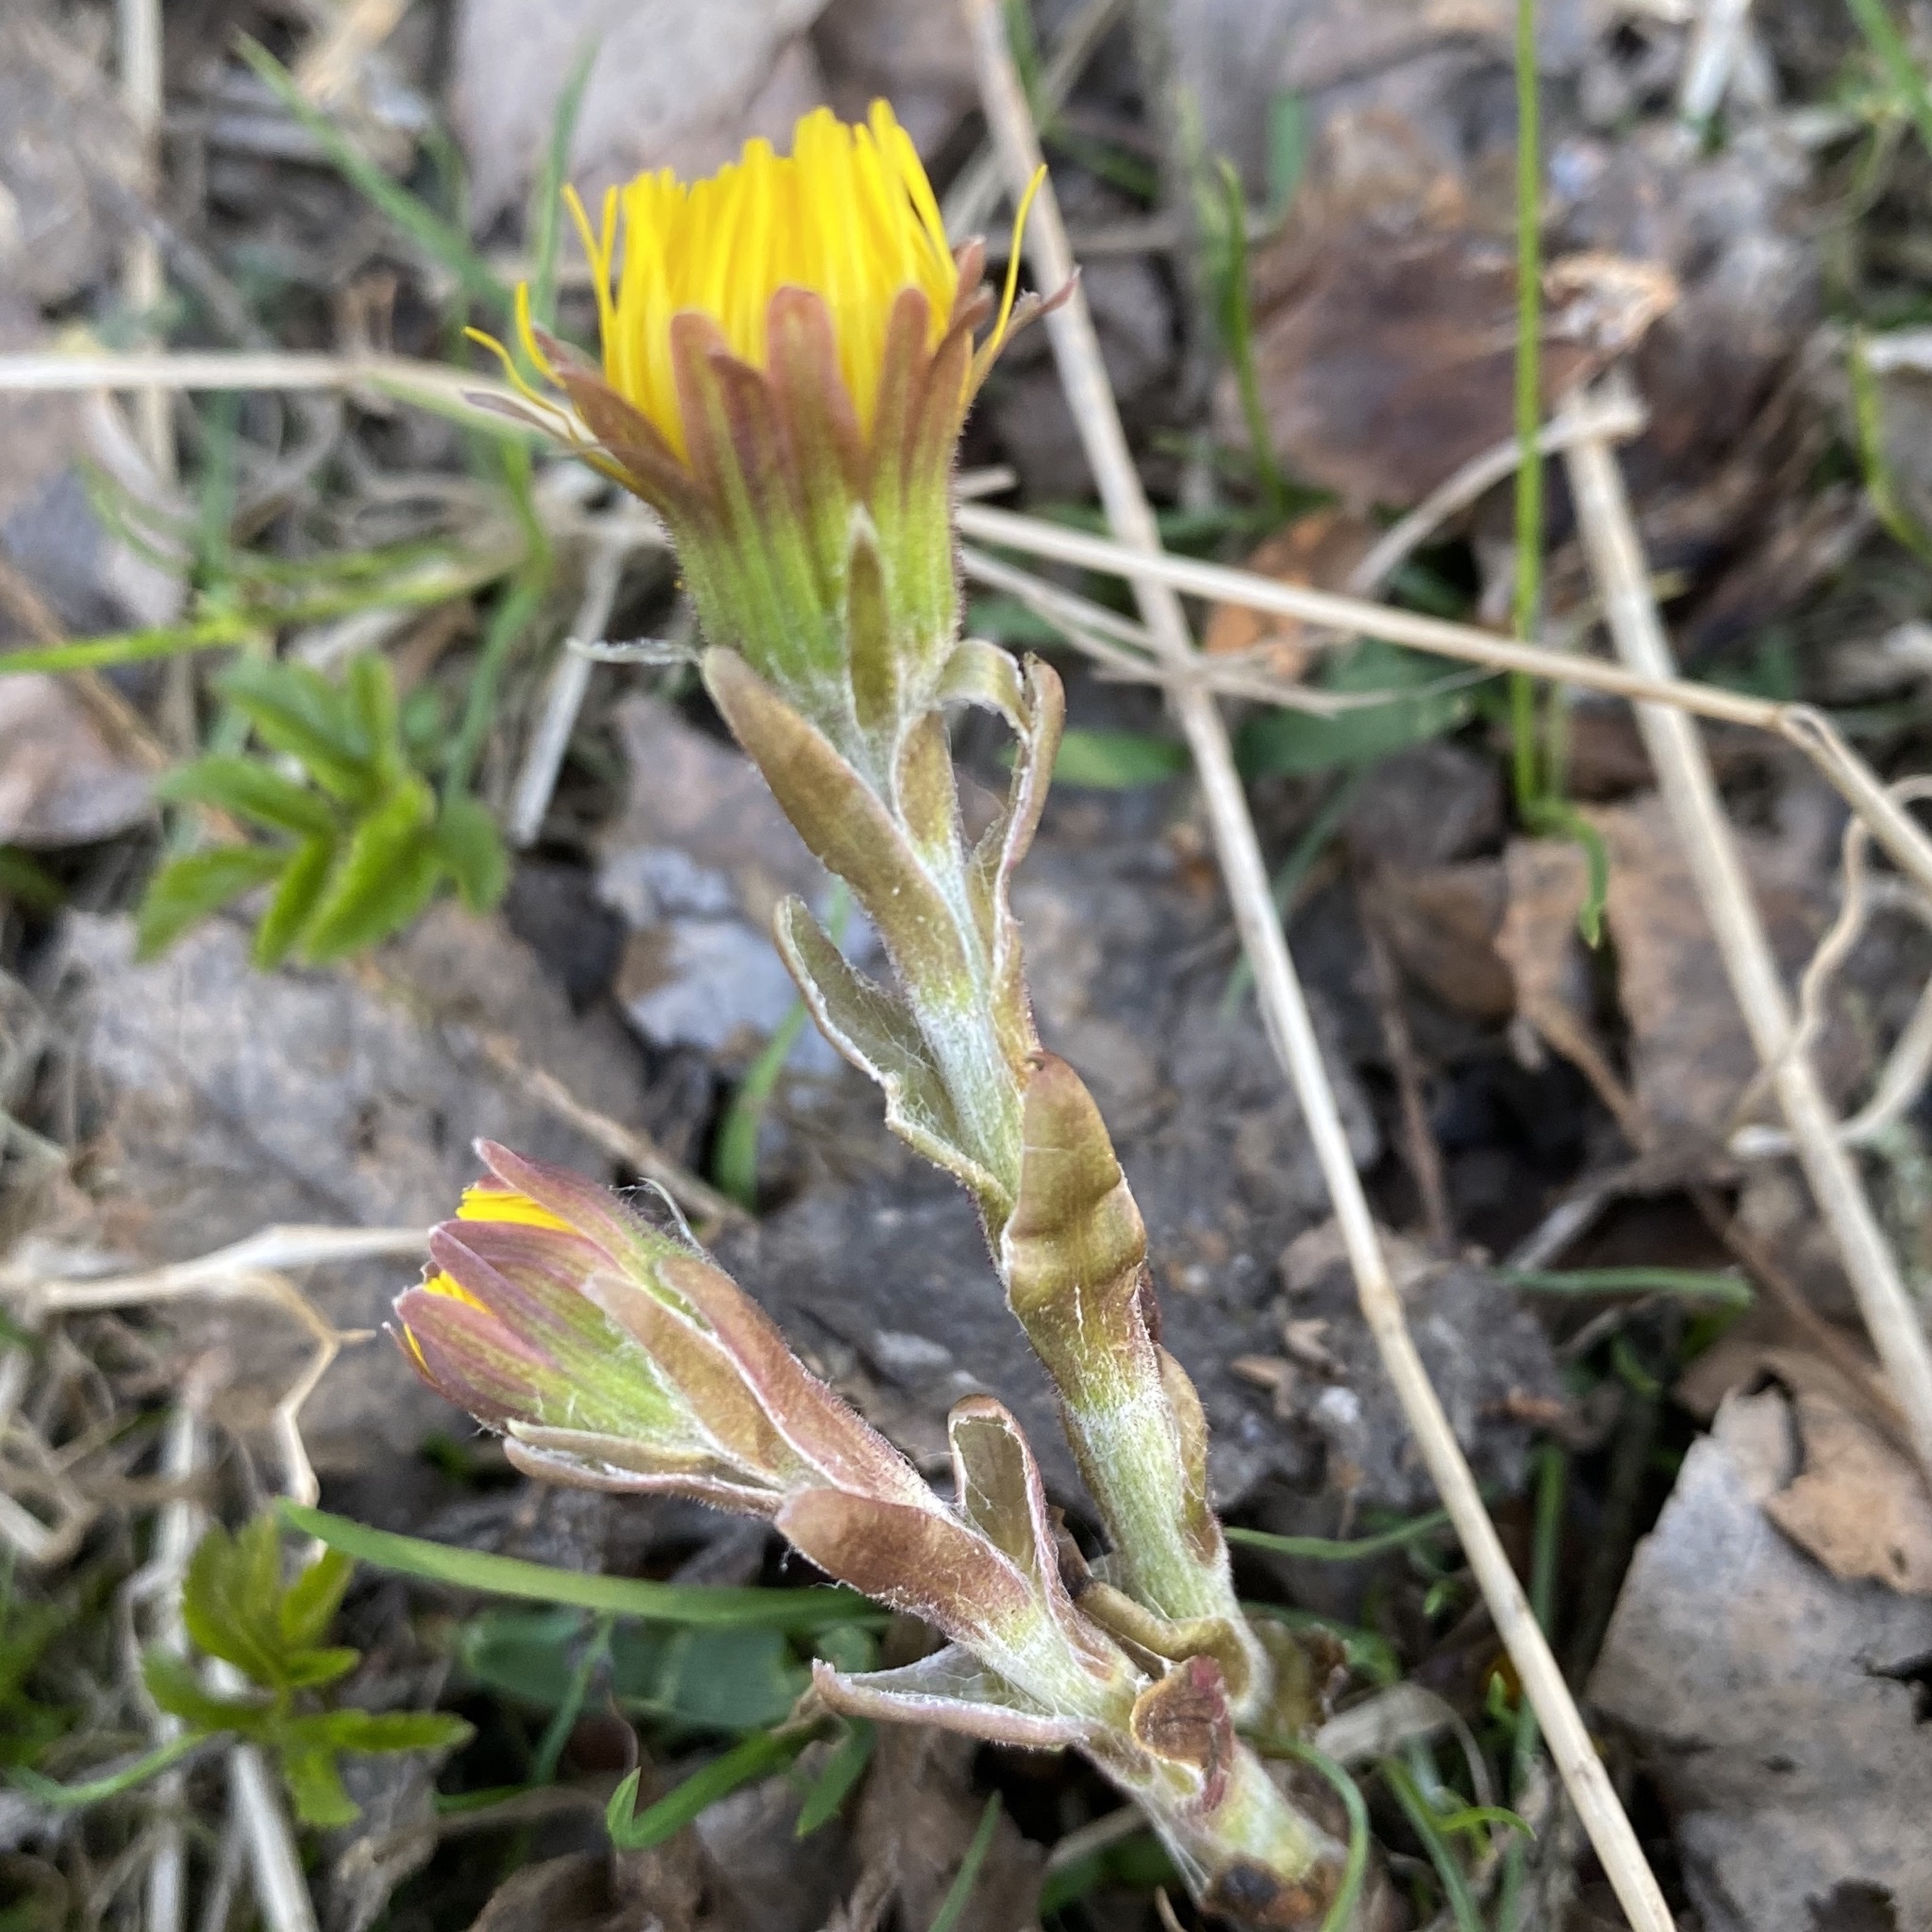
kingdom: Plantae
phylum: Tracheophyta
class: Magnoliopsida
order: Asterales
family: Asteraceae
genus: Tussilago
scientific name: Tussilago farfara
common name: Coltsfoot
